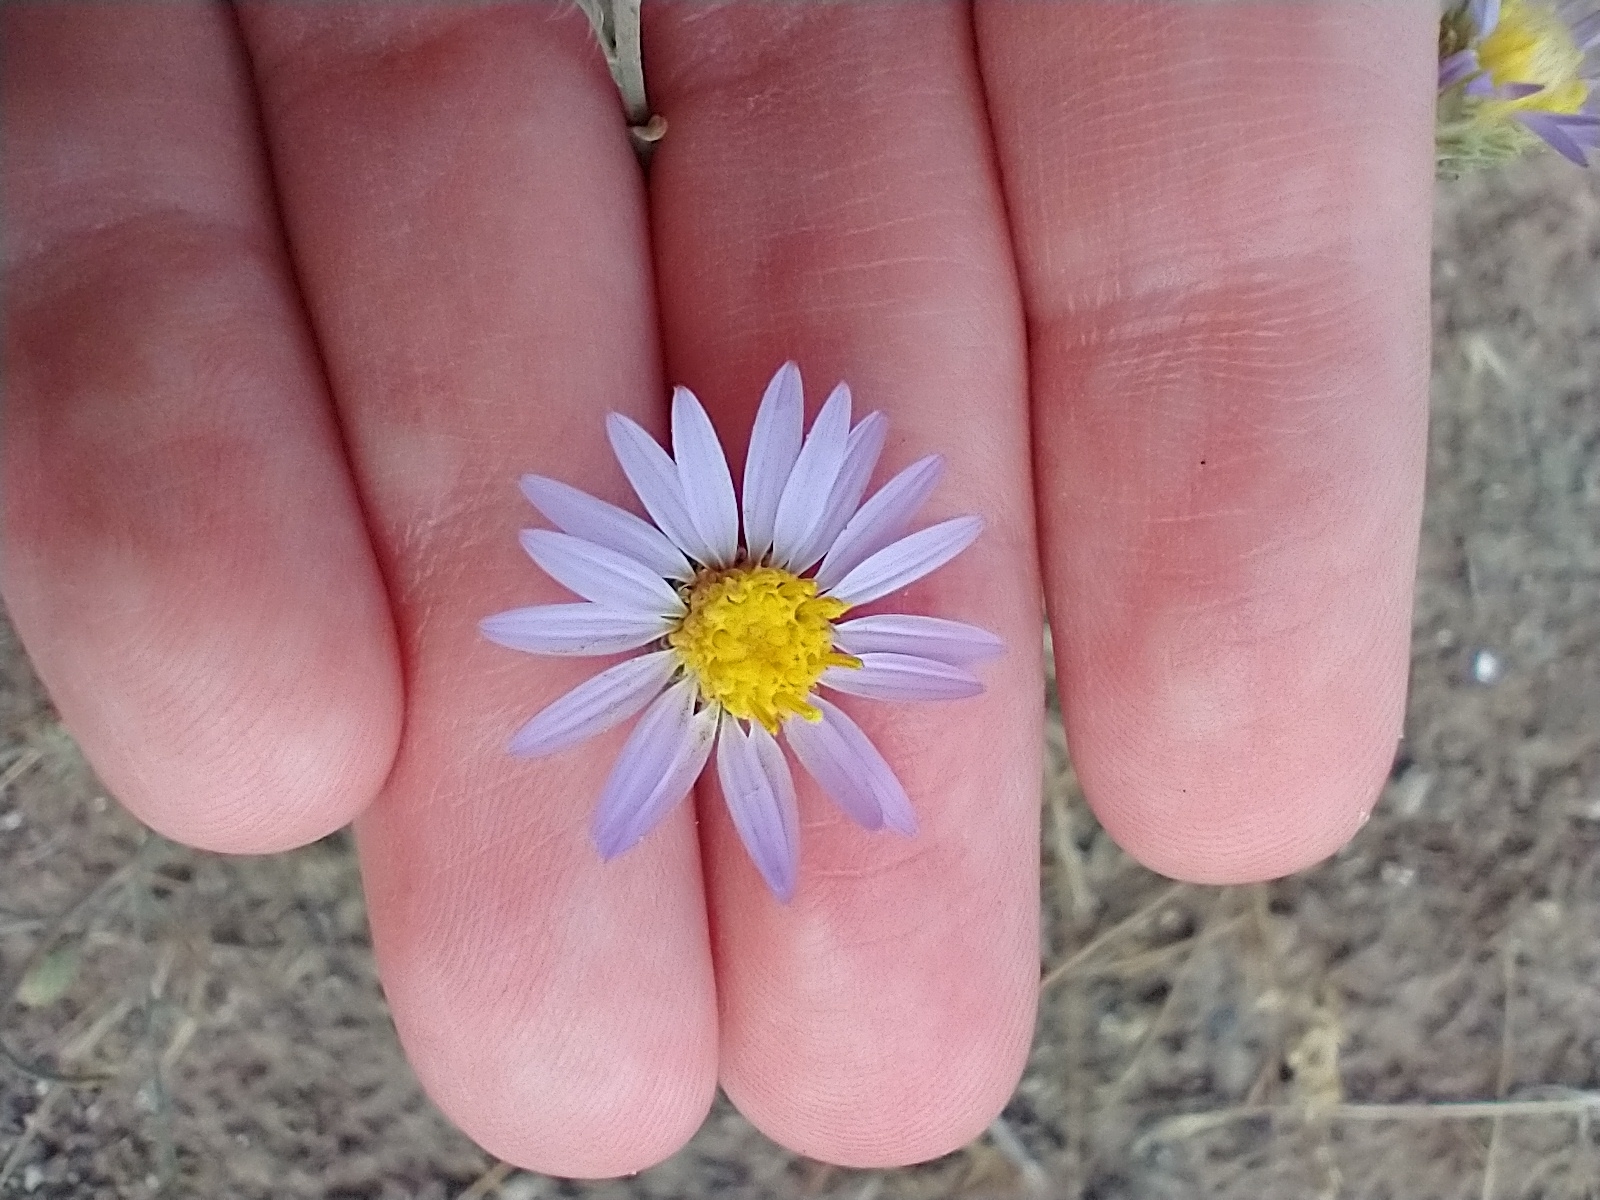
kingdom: Plantae
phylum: Tracheophyta
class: Magnoliopsida
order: Asterales
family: Asteraceae
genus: Dieteria
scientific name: Dieteria canescens
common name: Hoary-aster
